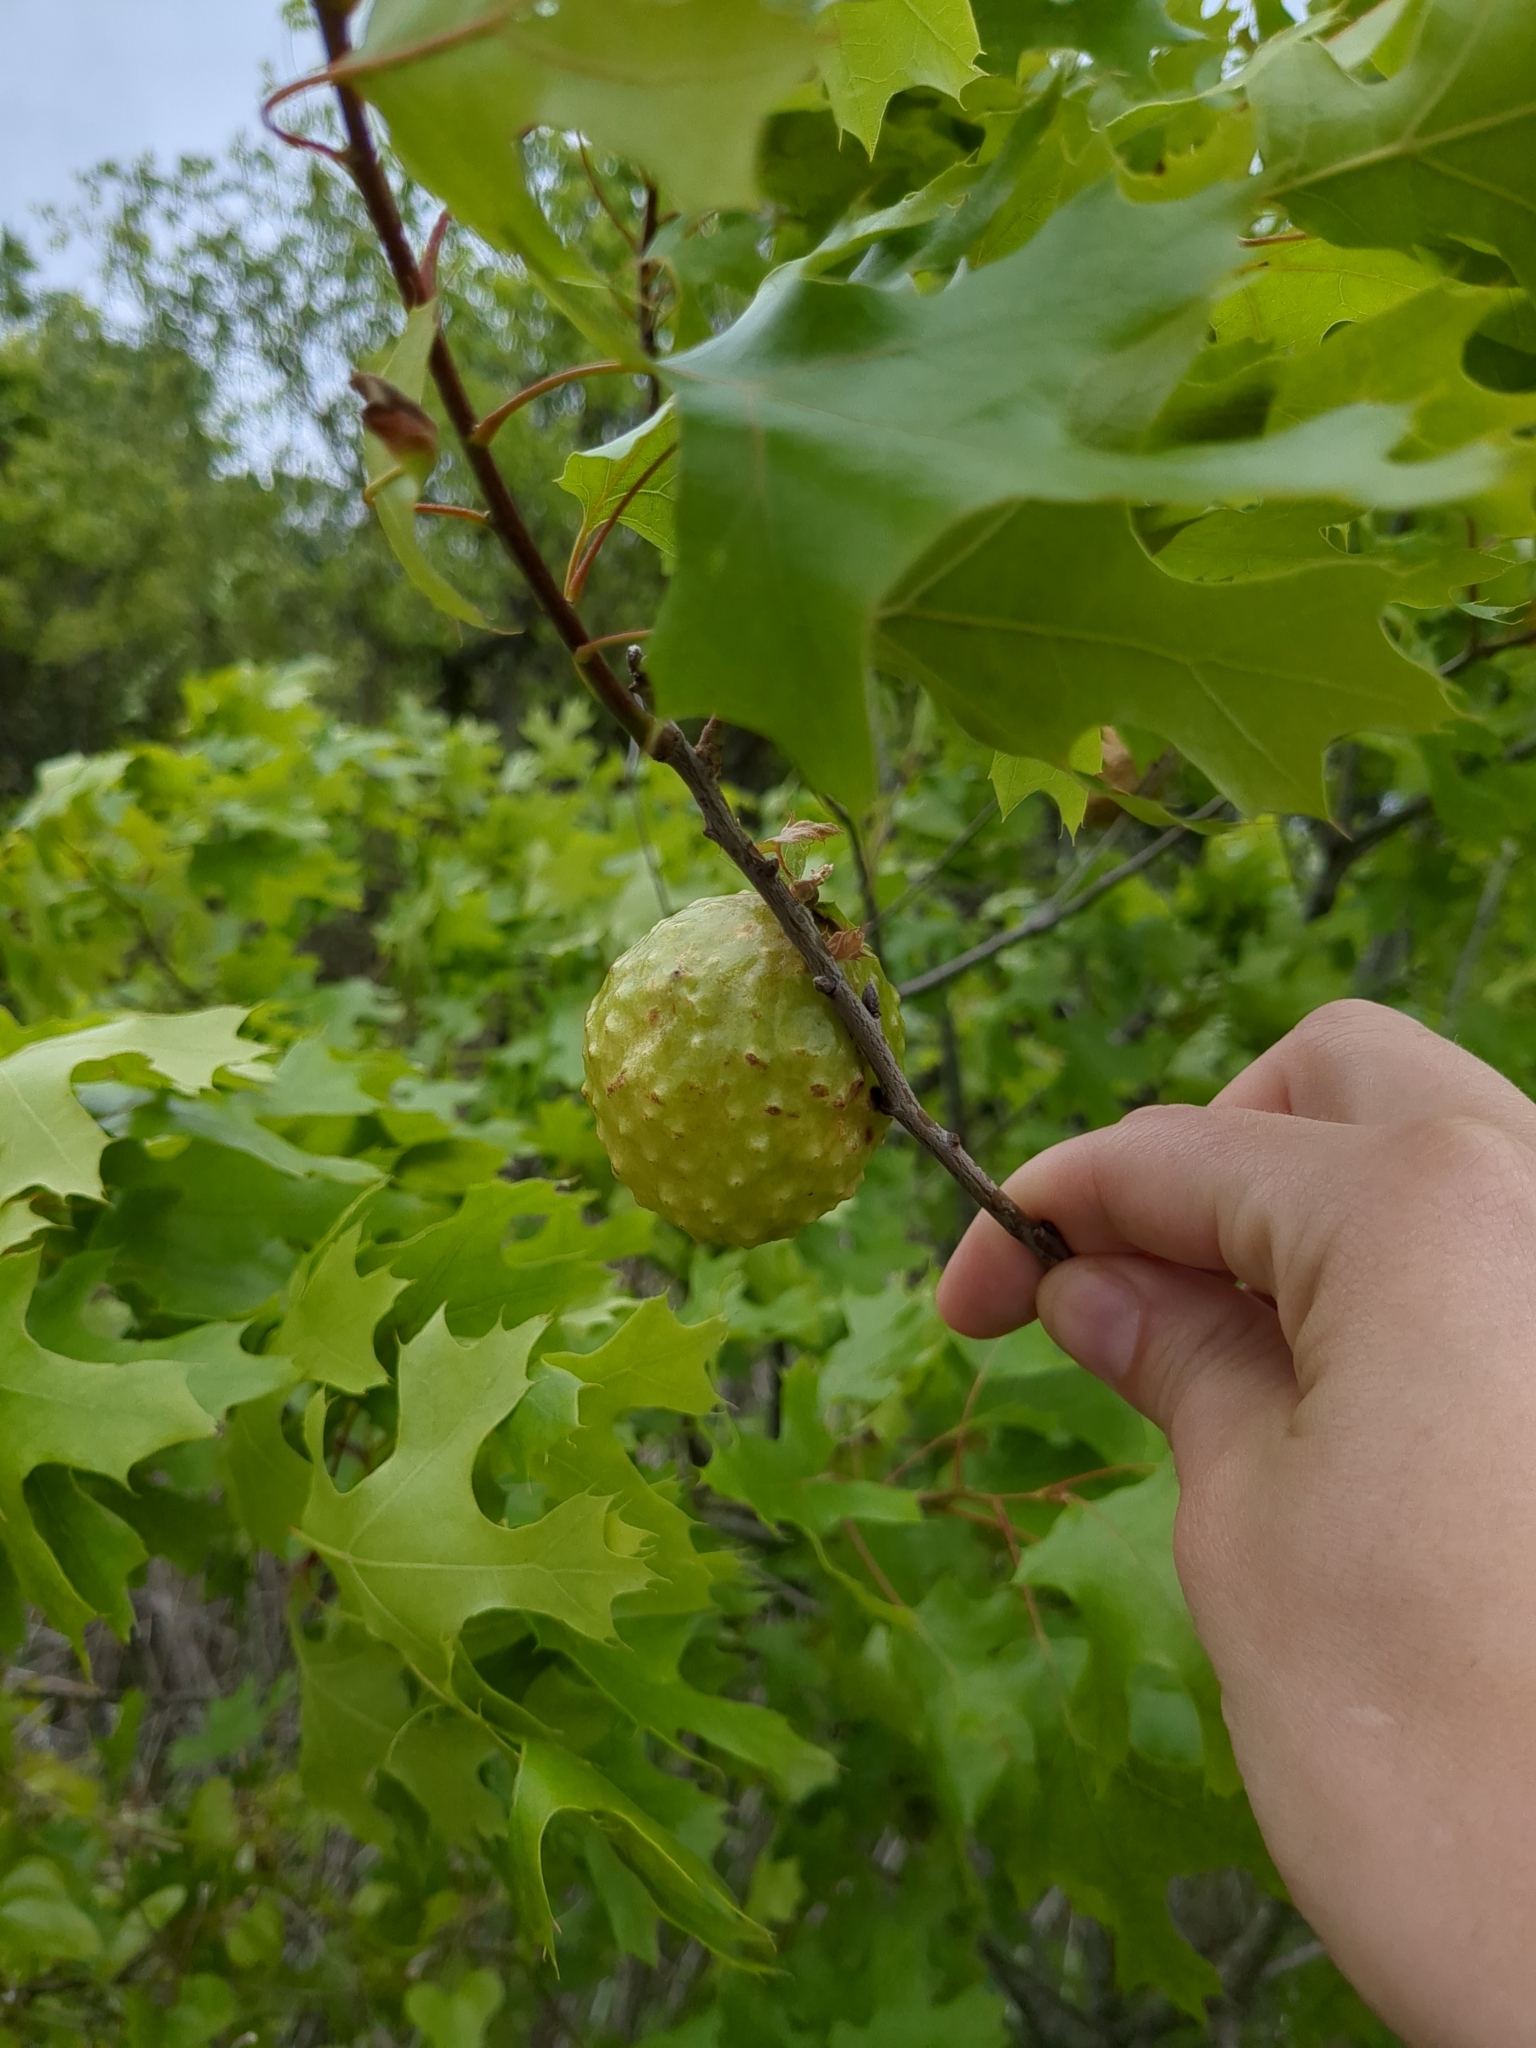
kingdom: Animalia
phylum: Arthropoda
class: Insecta
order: Hymenoptera
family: Cynipidae
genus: Amphibolips
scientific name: Amphibolips
